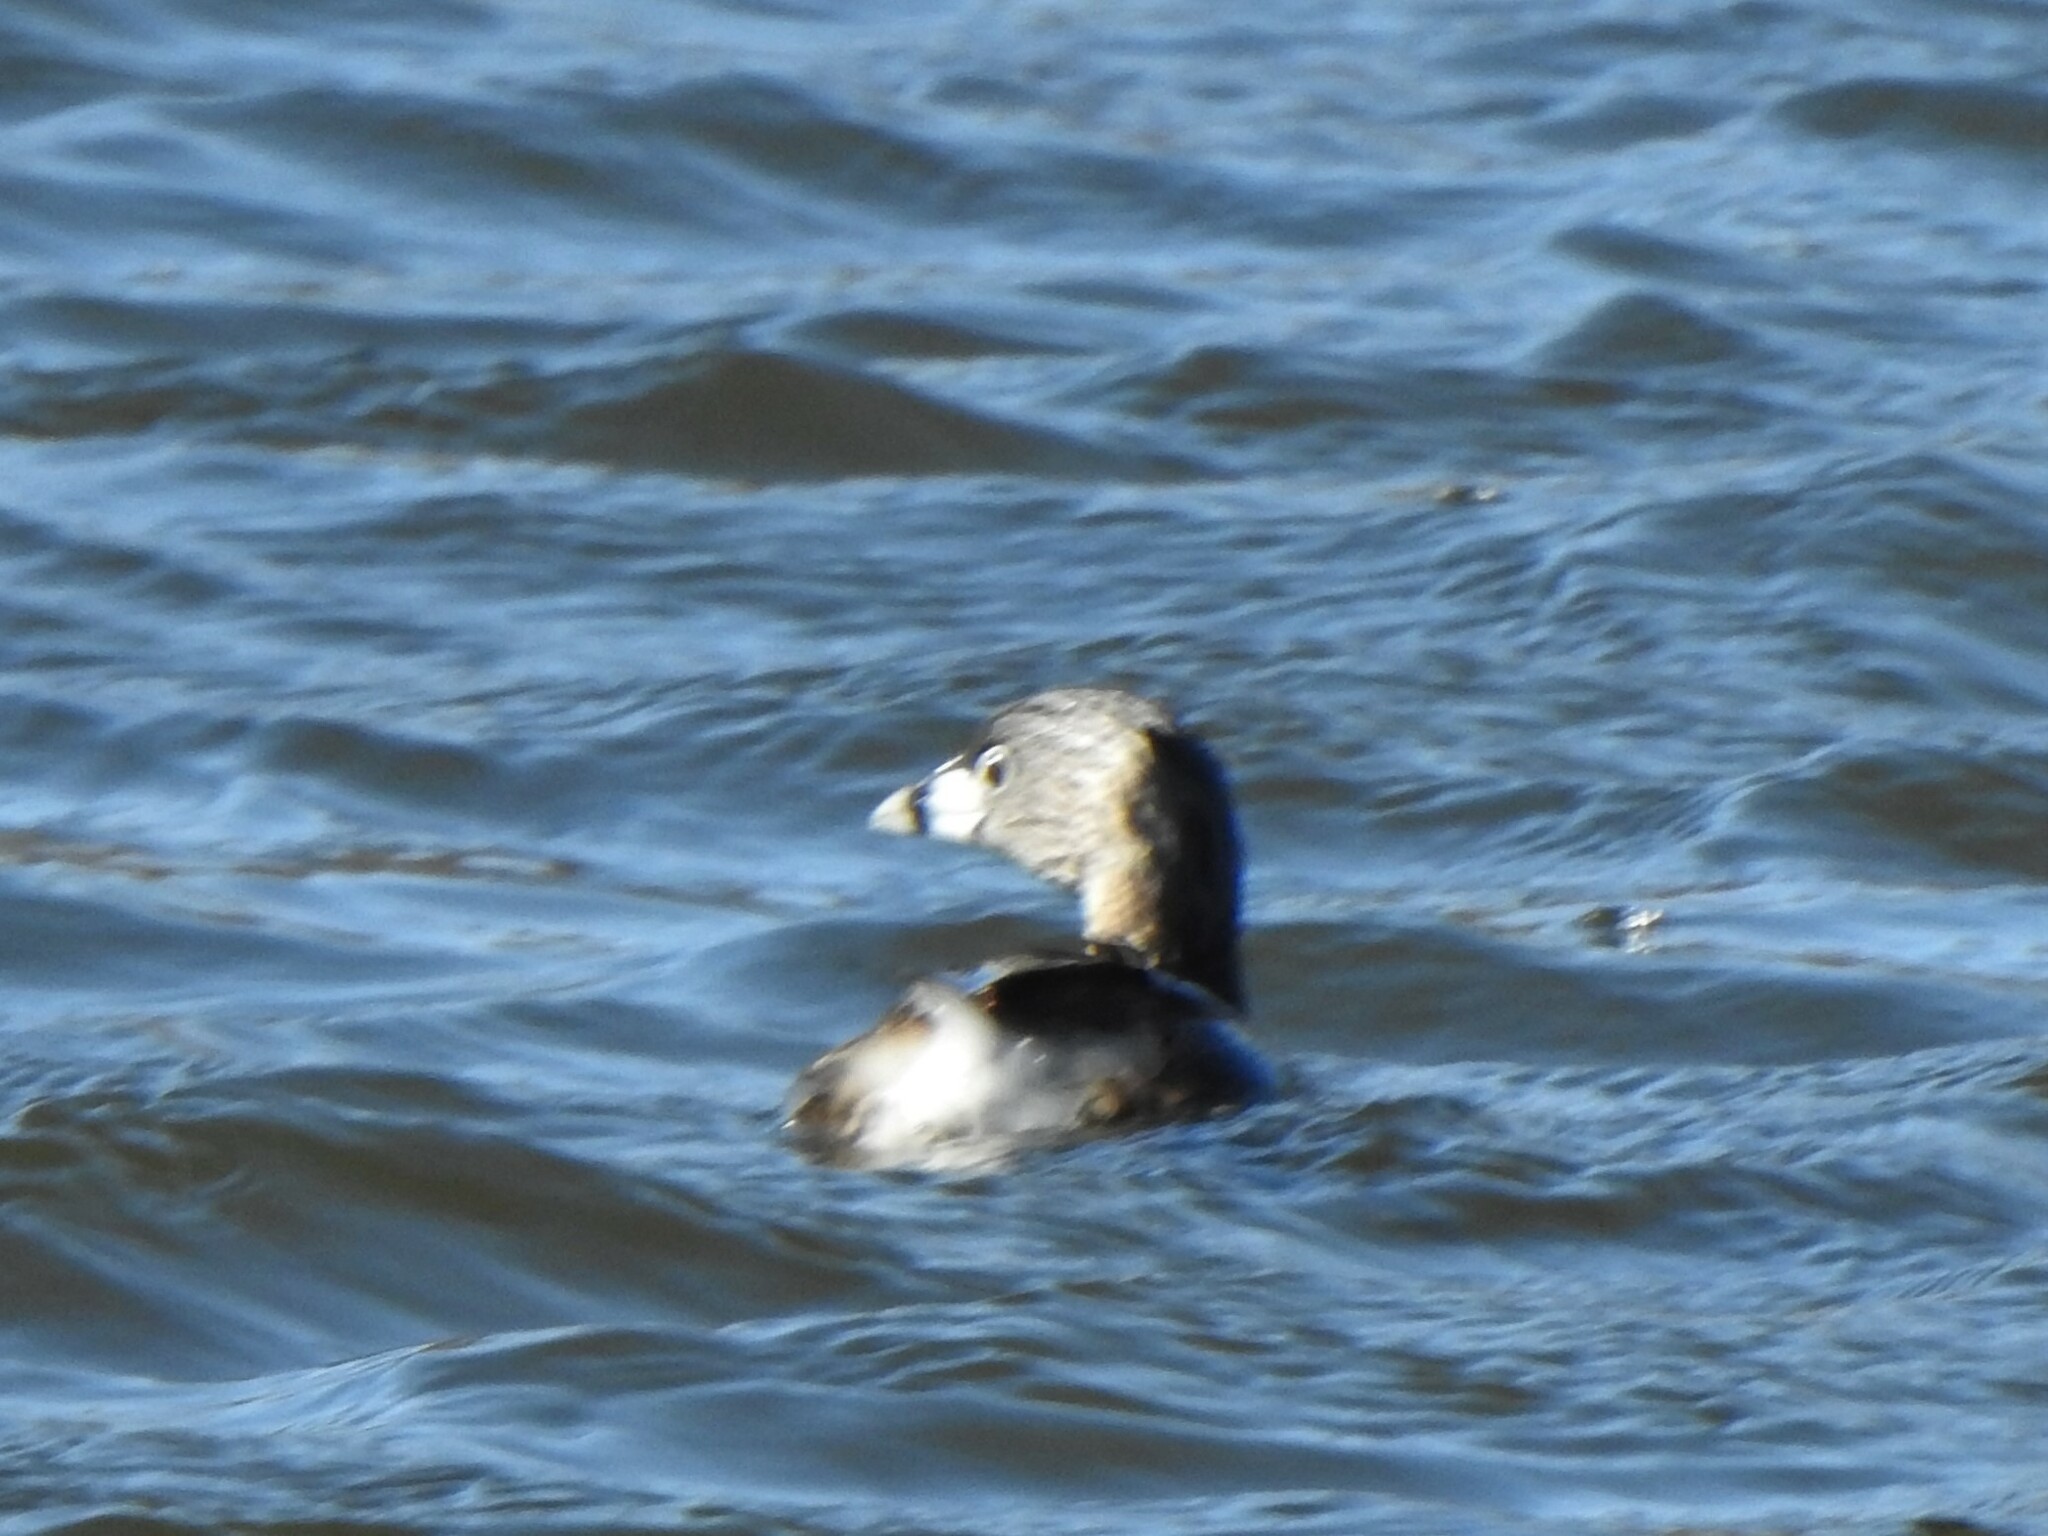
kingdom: Animalia
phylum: Chordata
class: Aves
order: Podicipediformes
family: Podicipedidae
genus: Podilymbus
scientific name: Podilymbus podiceps
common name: Pied-billed grebe
